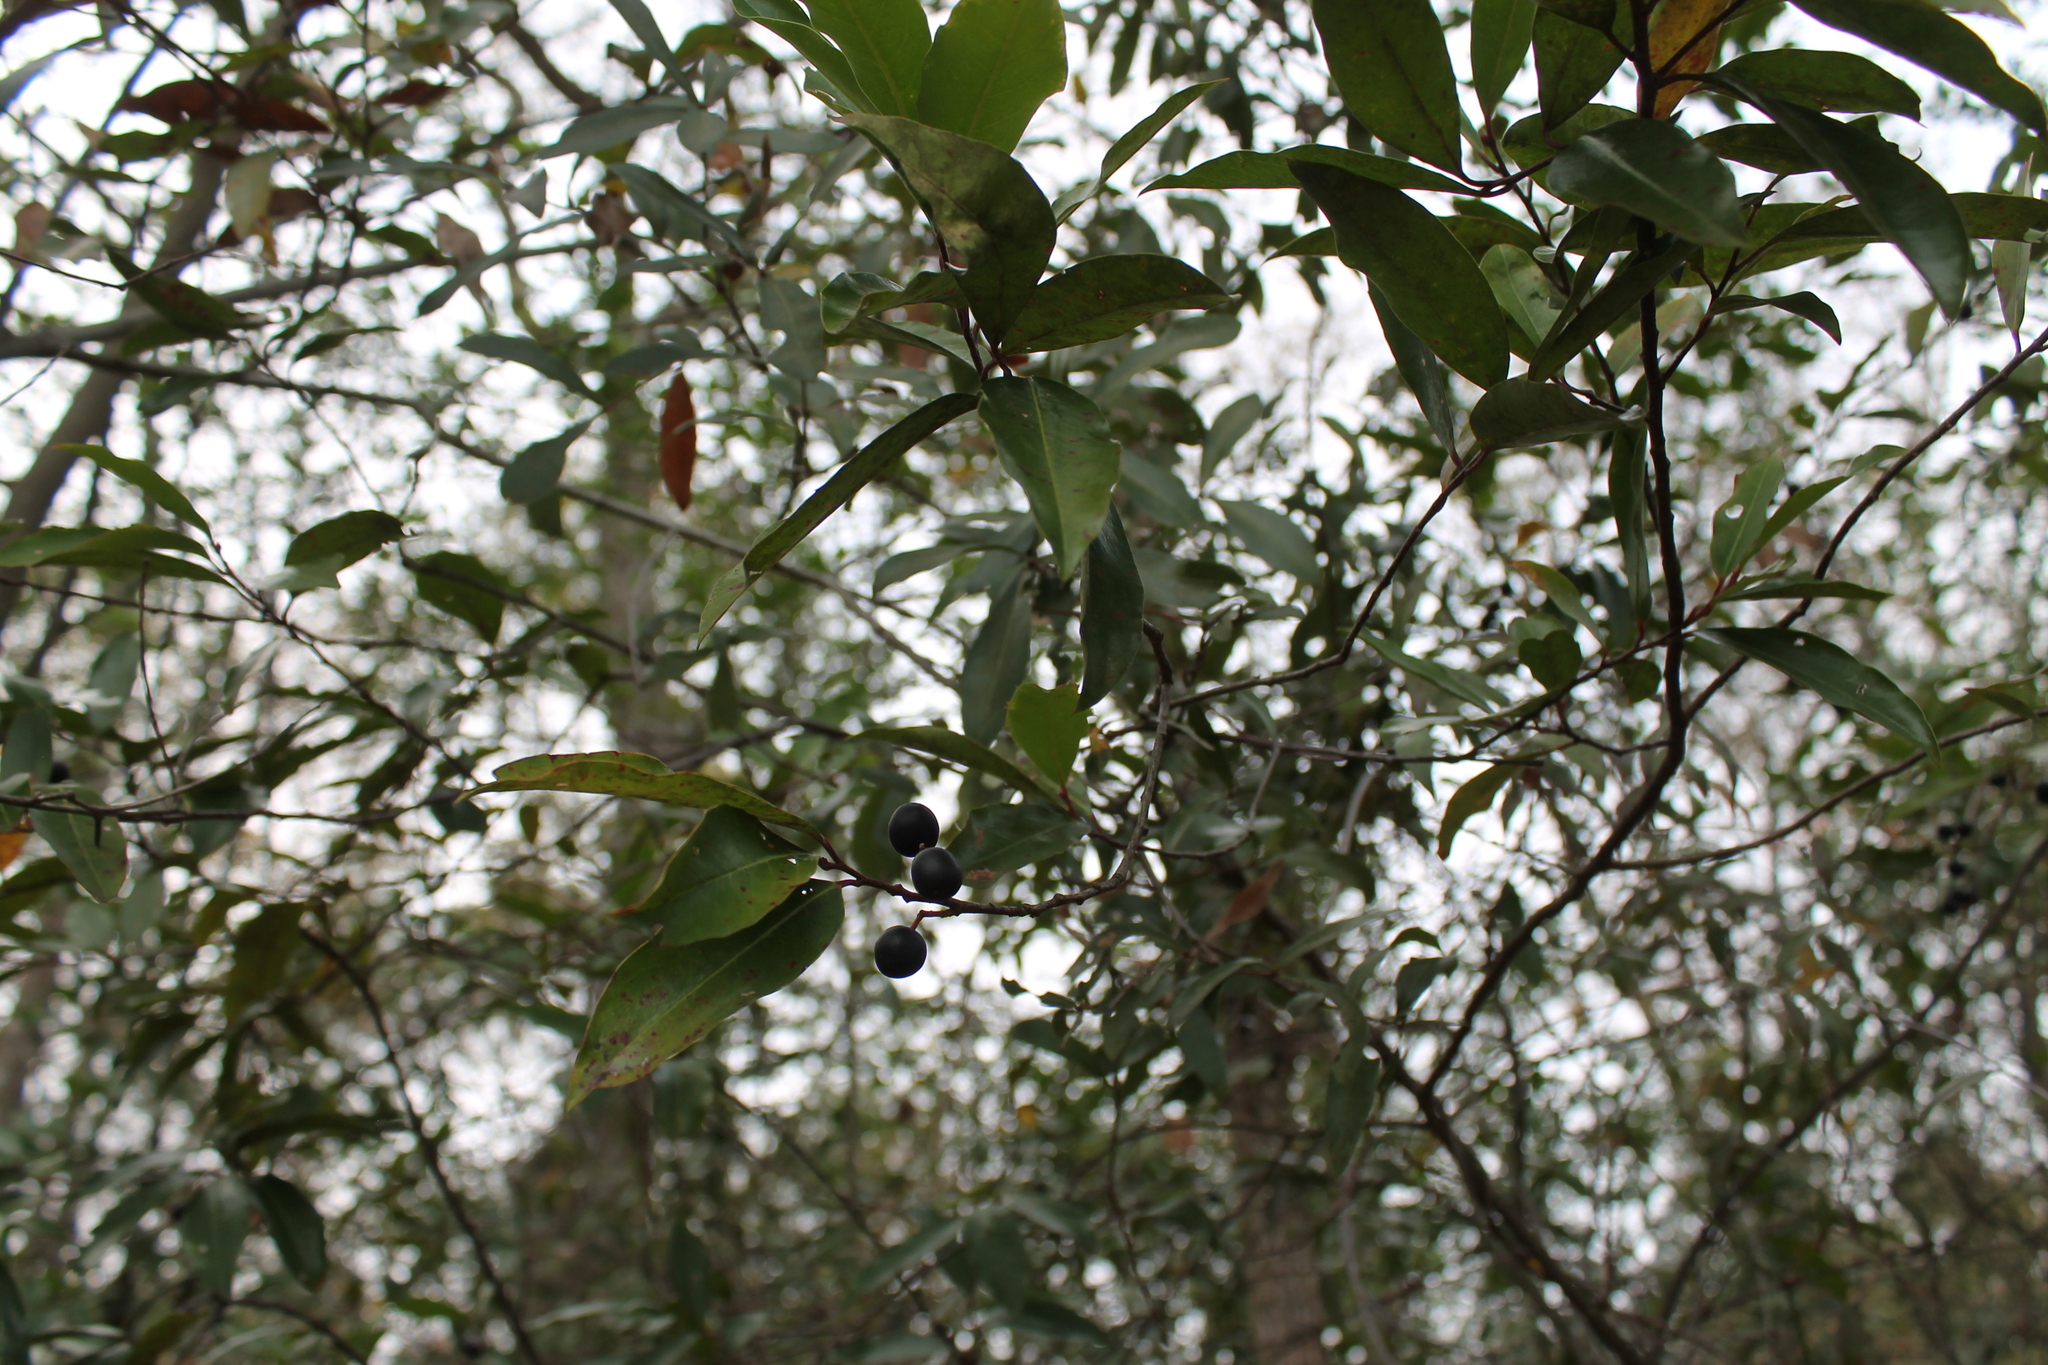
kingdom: Plantae
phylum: Tracheophyta
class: Magnoliopsida
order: Rosales
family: Rosaceae
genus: Prunus
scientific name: Prunus caroliniana
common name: Carolina laurel cherry
